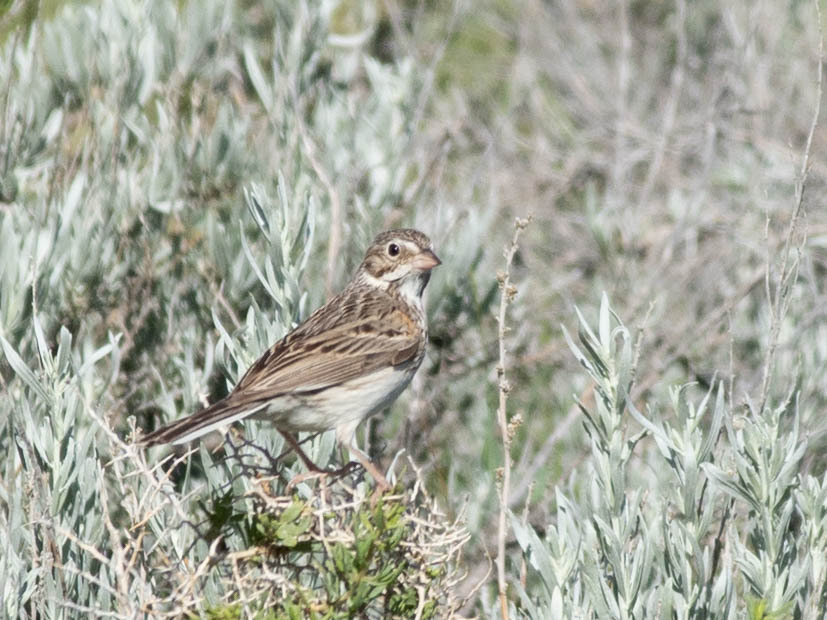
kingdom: Animalia
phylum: Chordata
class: Aves
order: Passeriformes
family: Passerellidae
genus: Pooecetes
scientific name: Pooecetes gramineus
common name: Vesper sparrow
